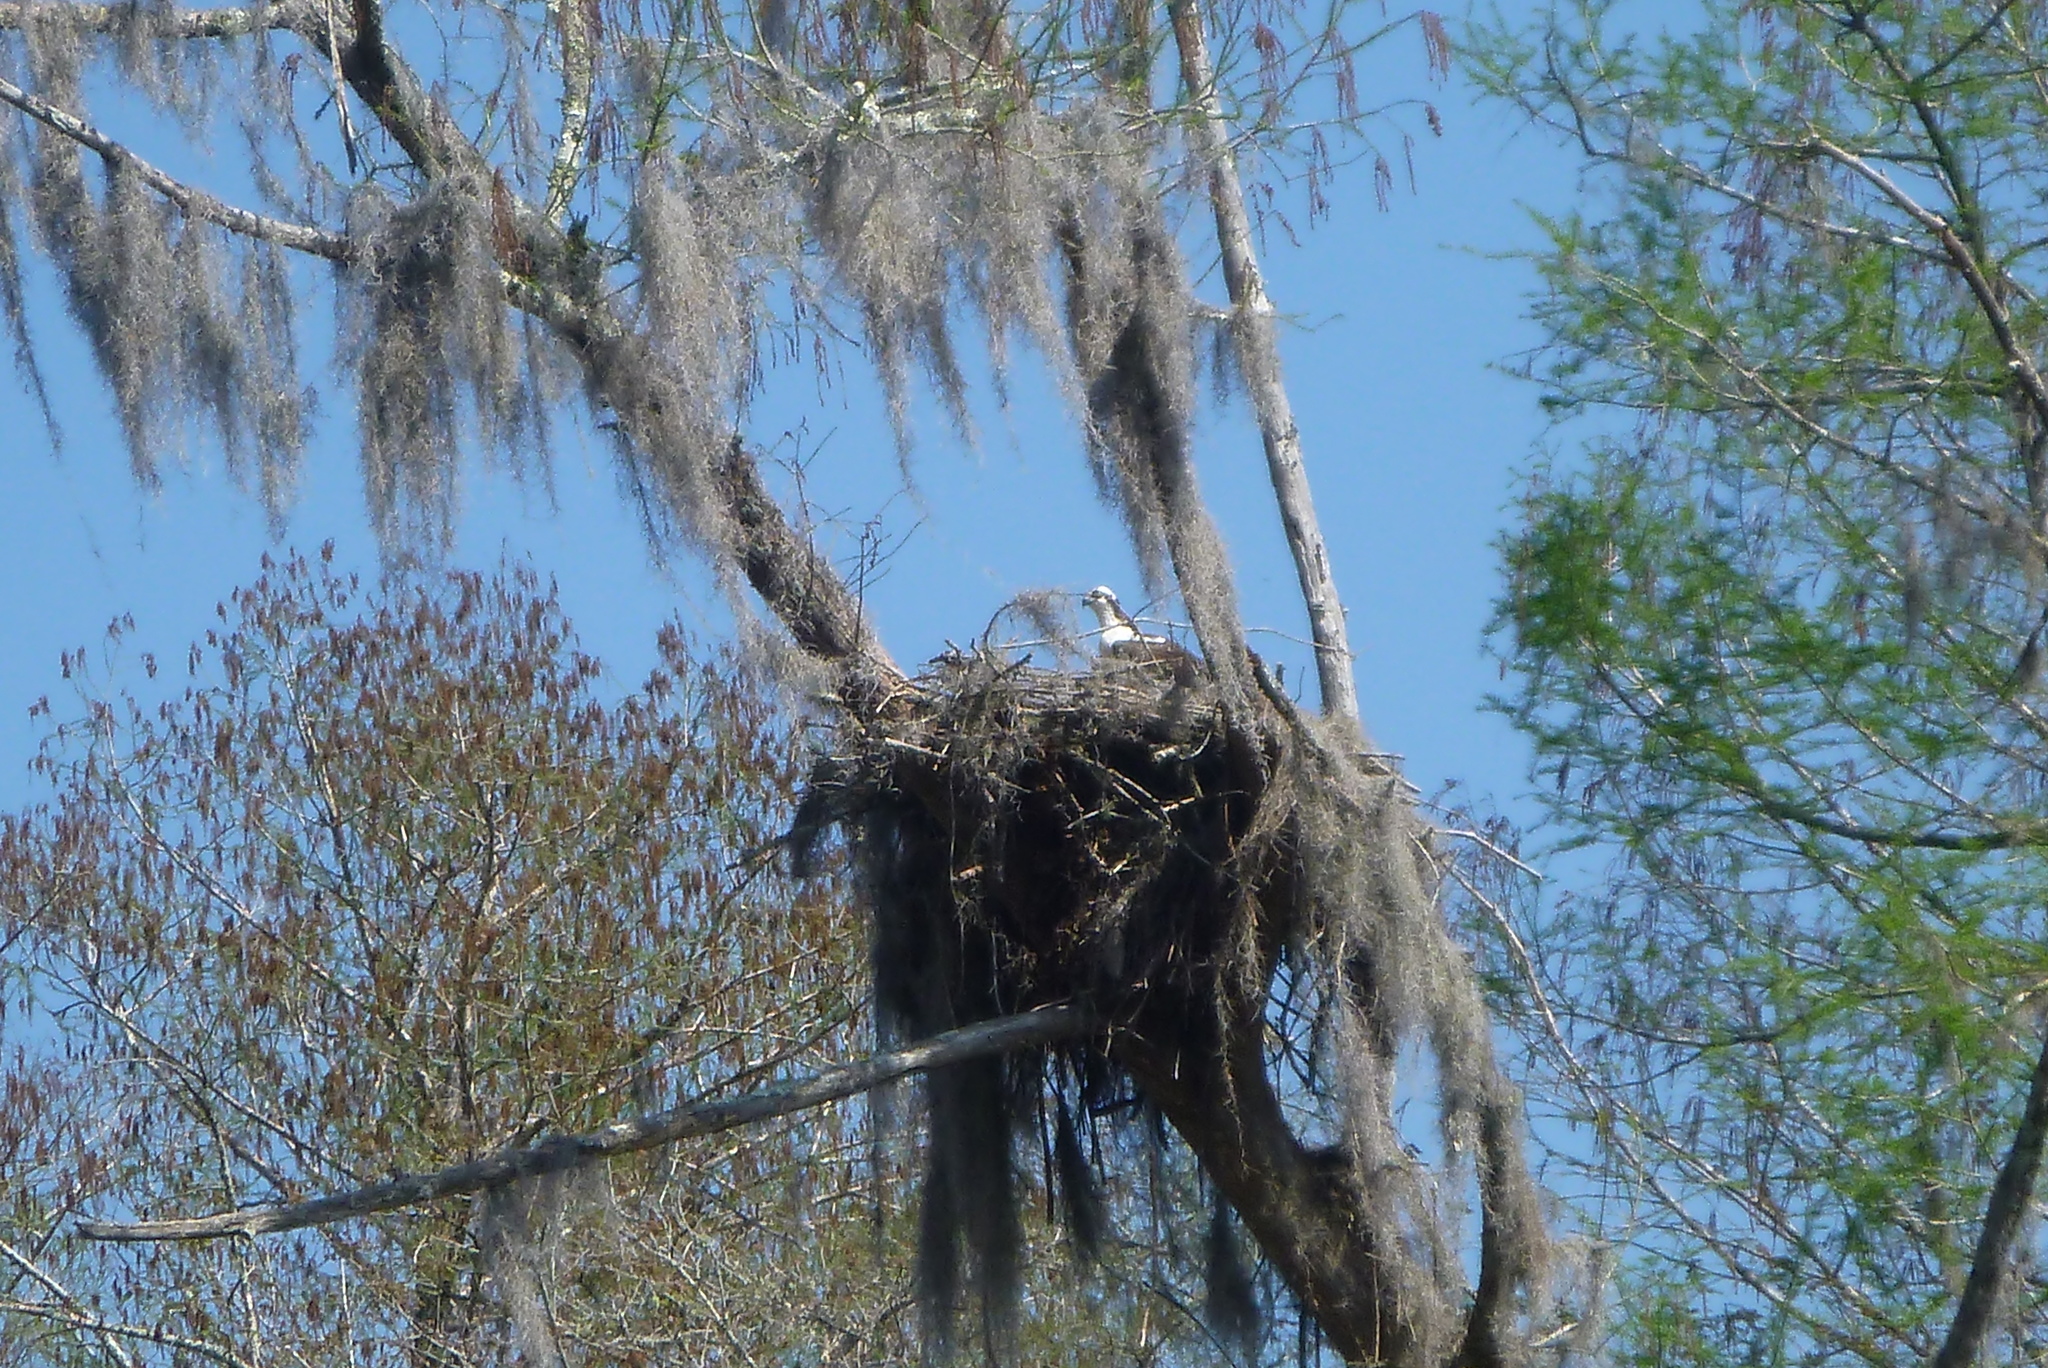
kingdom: Animalia
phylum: Chordata
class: Aves
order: Accipitriformes
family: Pandionidae
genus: Pandion
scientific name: Pandion haliaetus
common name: Osprey
